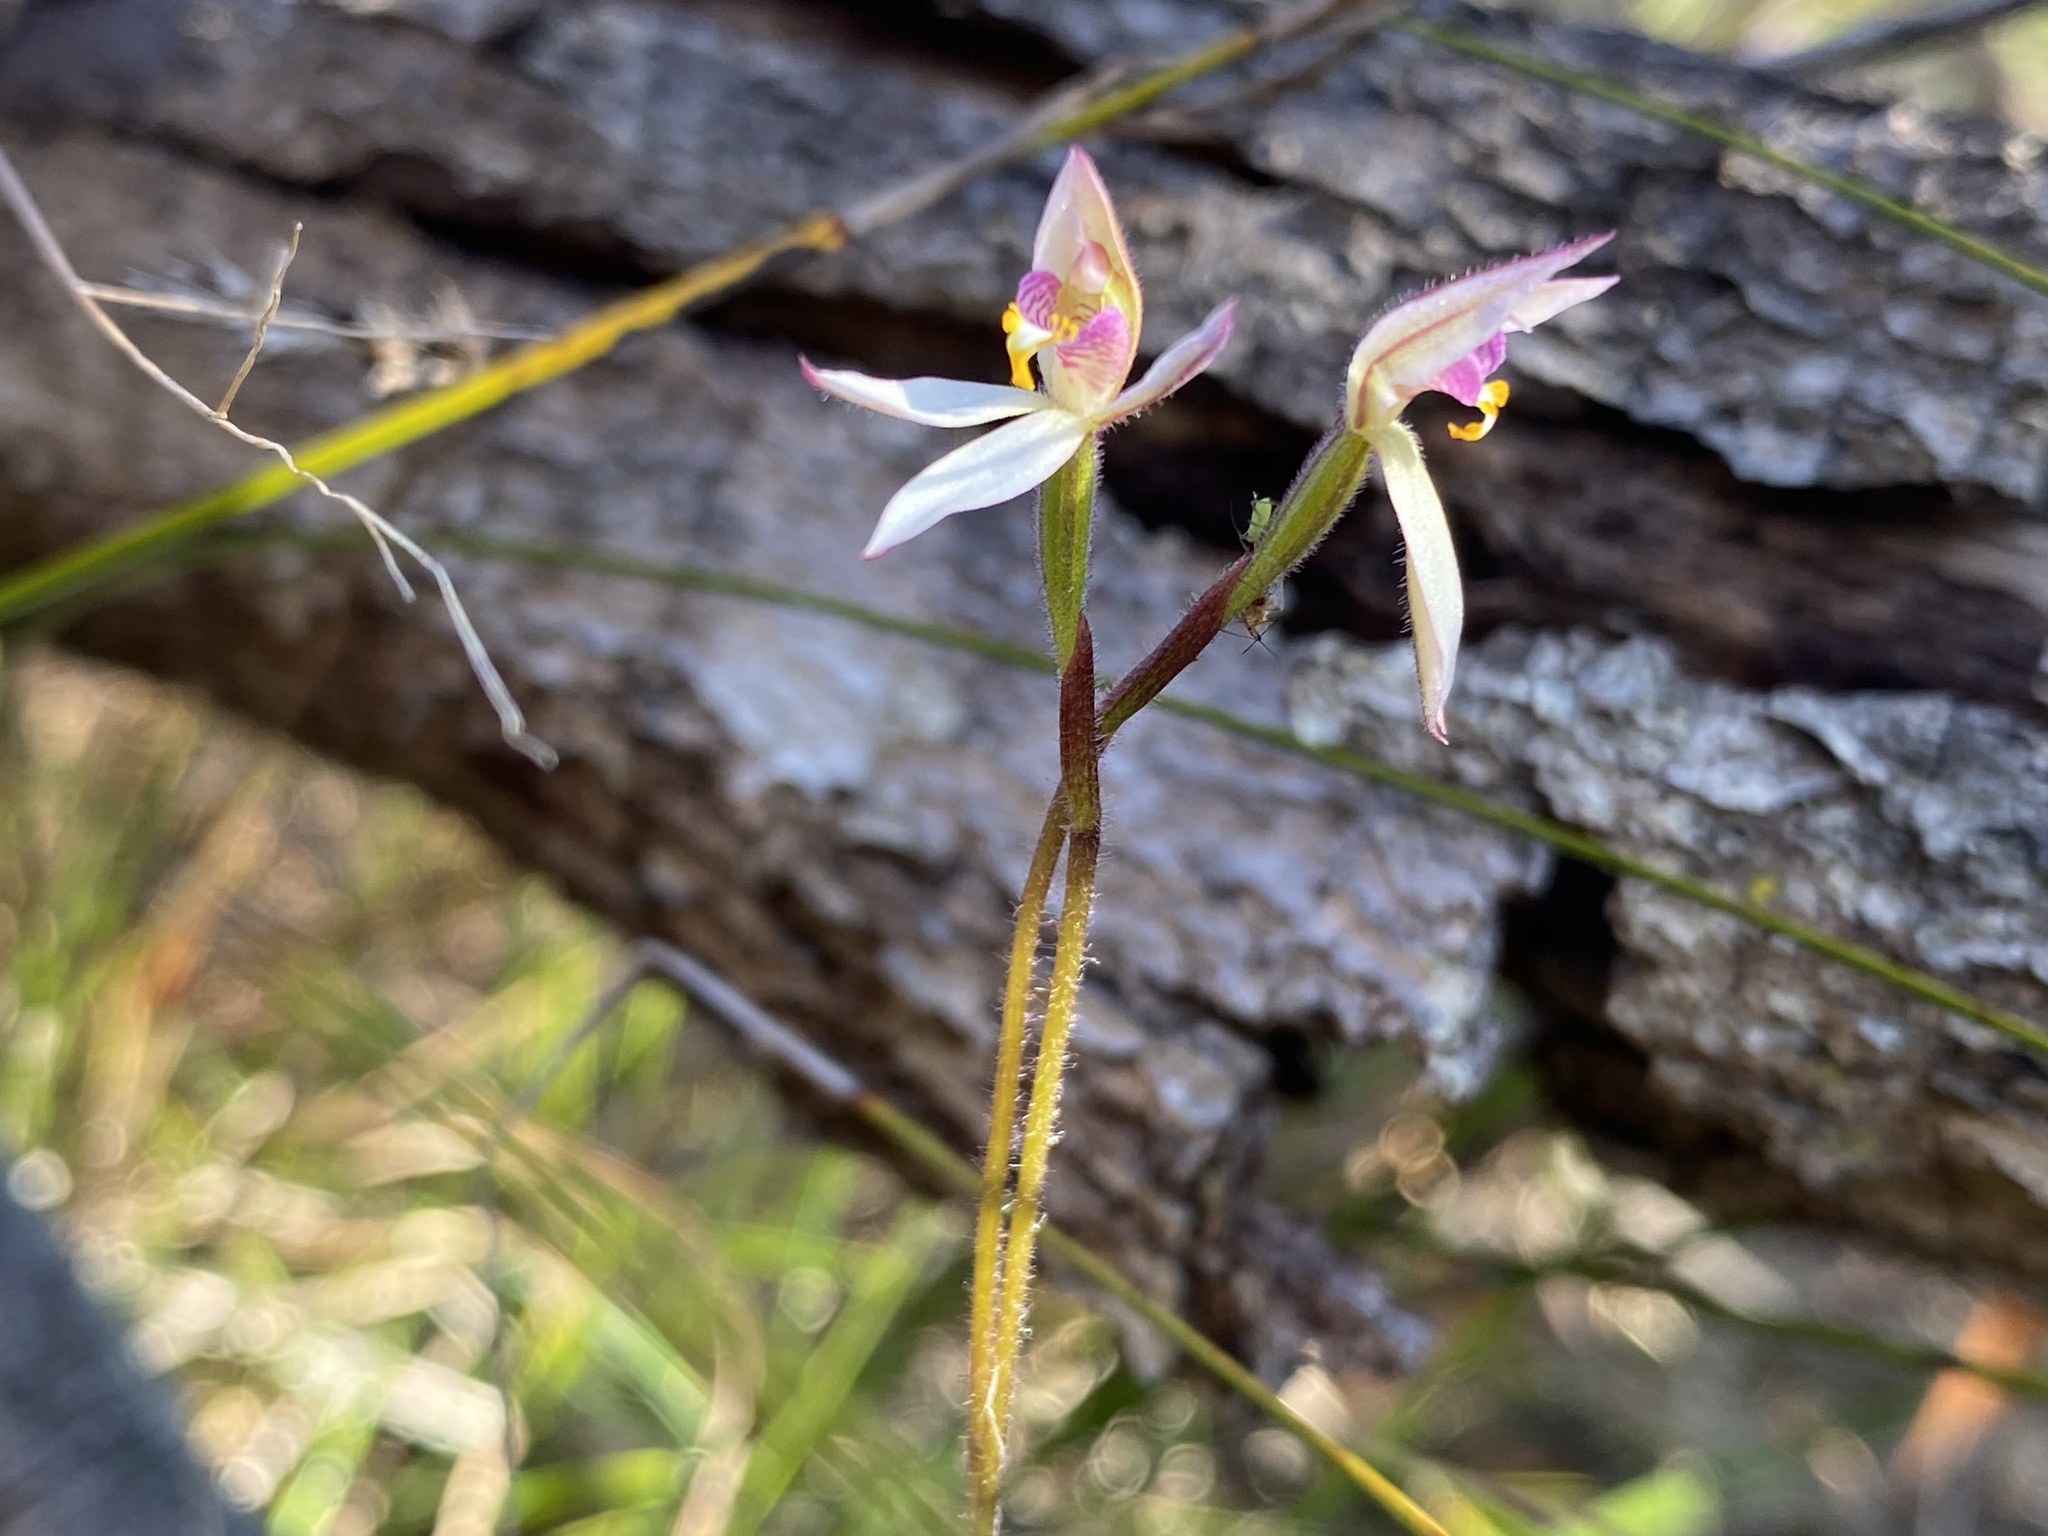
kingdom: Plantae
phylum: Tracheophyta
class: Liliopsida
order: Asparagales
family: Orchidaceae
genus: Caladenia
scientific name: Caladenia alata
